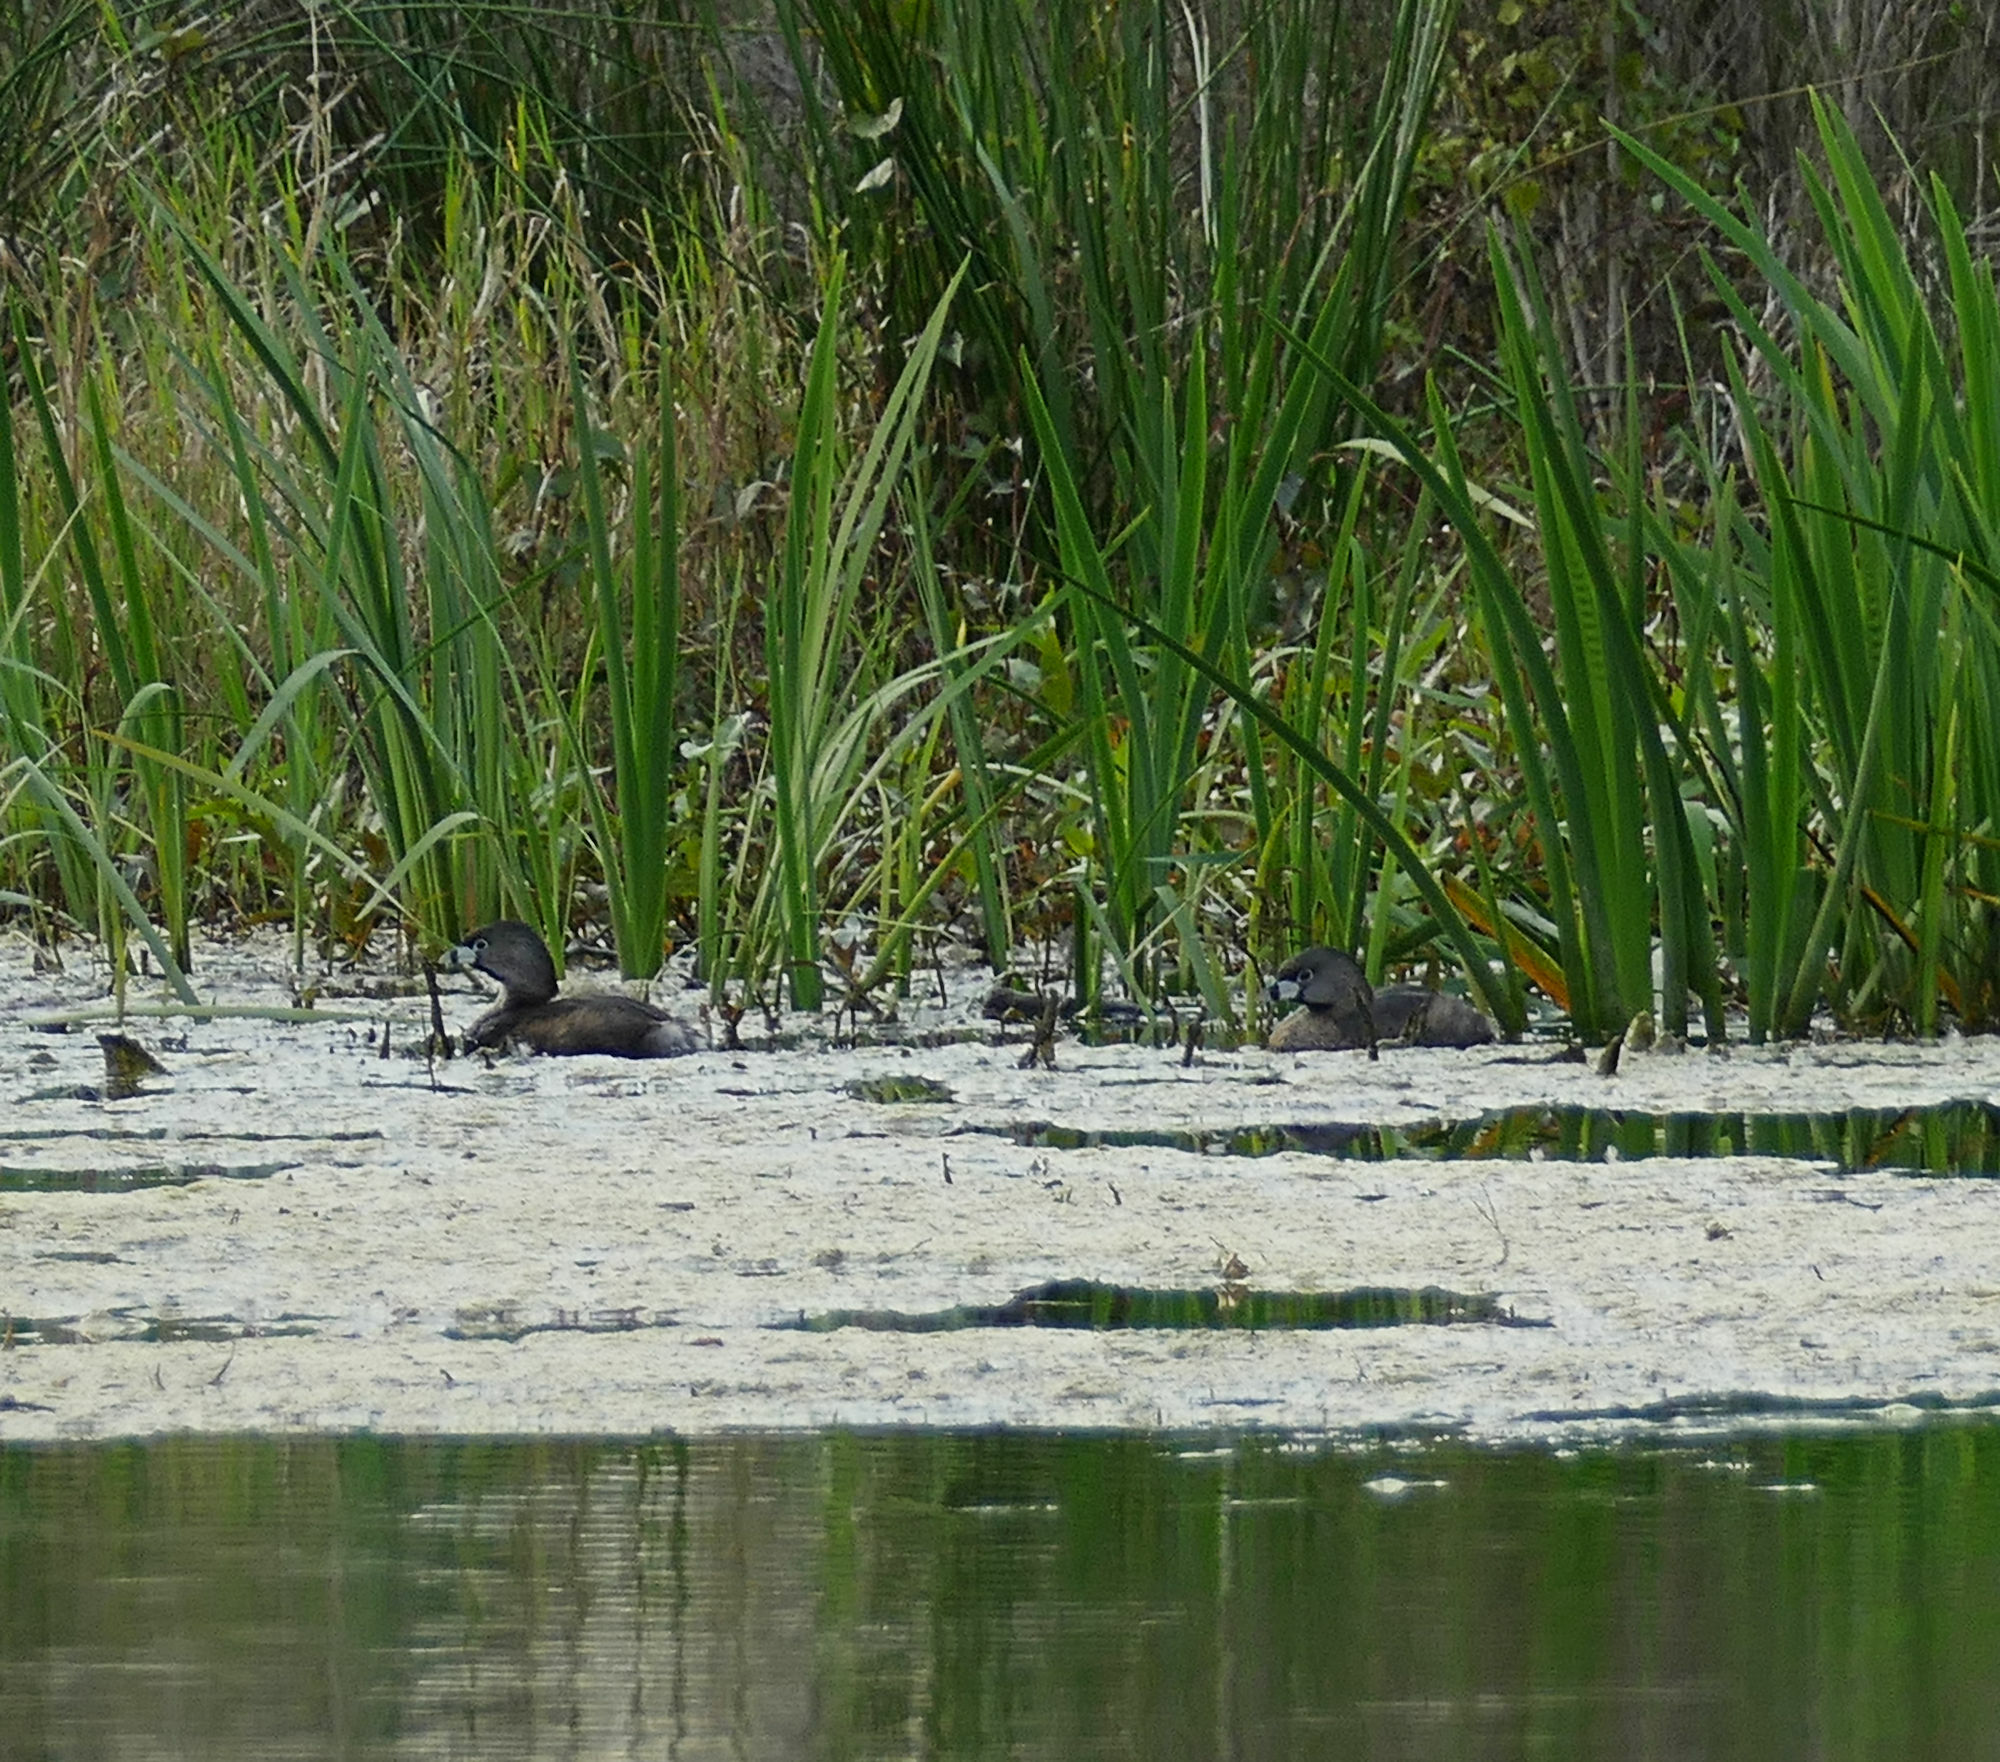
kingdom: Animalia
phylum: Chordata
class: Aves
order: Podicipediformes
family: Podicipedidae
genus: Podilymbus
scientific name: Podilymbus podiceps
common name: Pied-billed grebe
